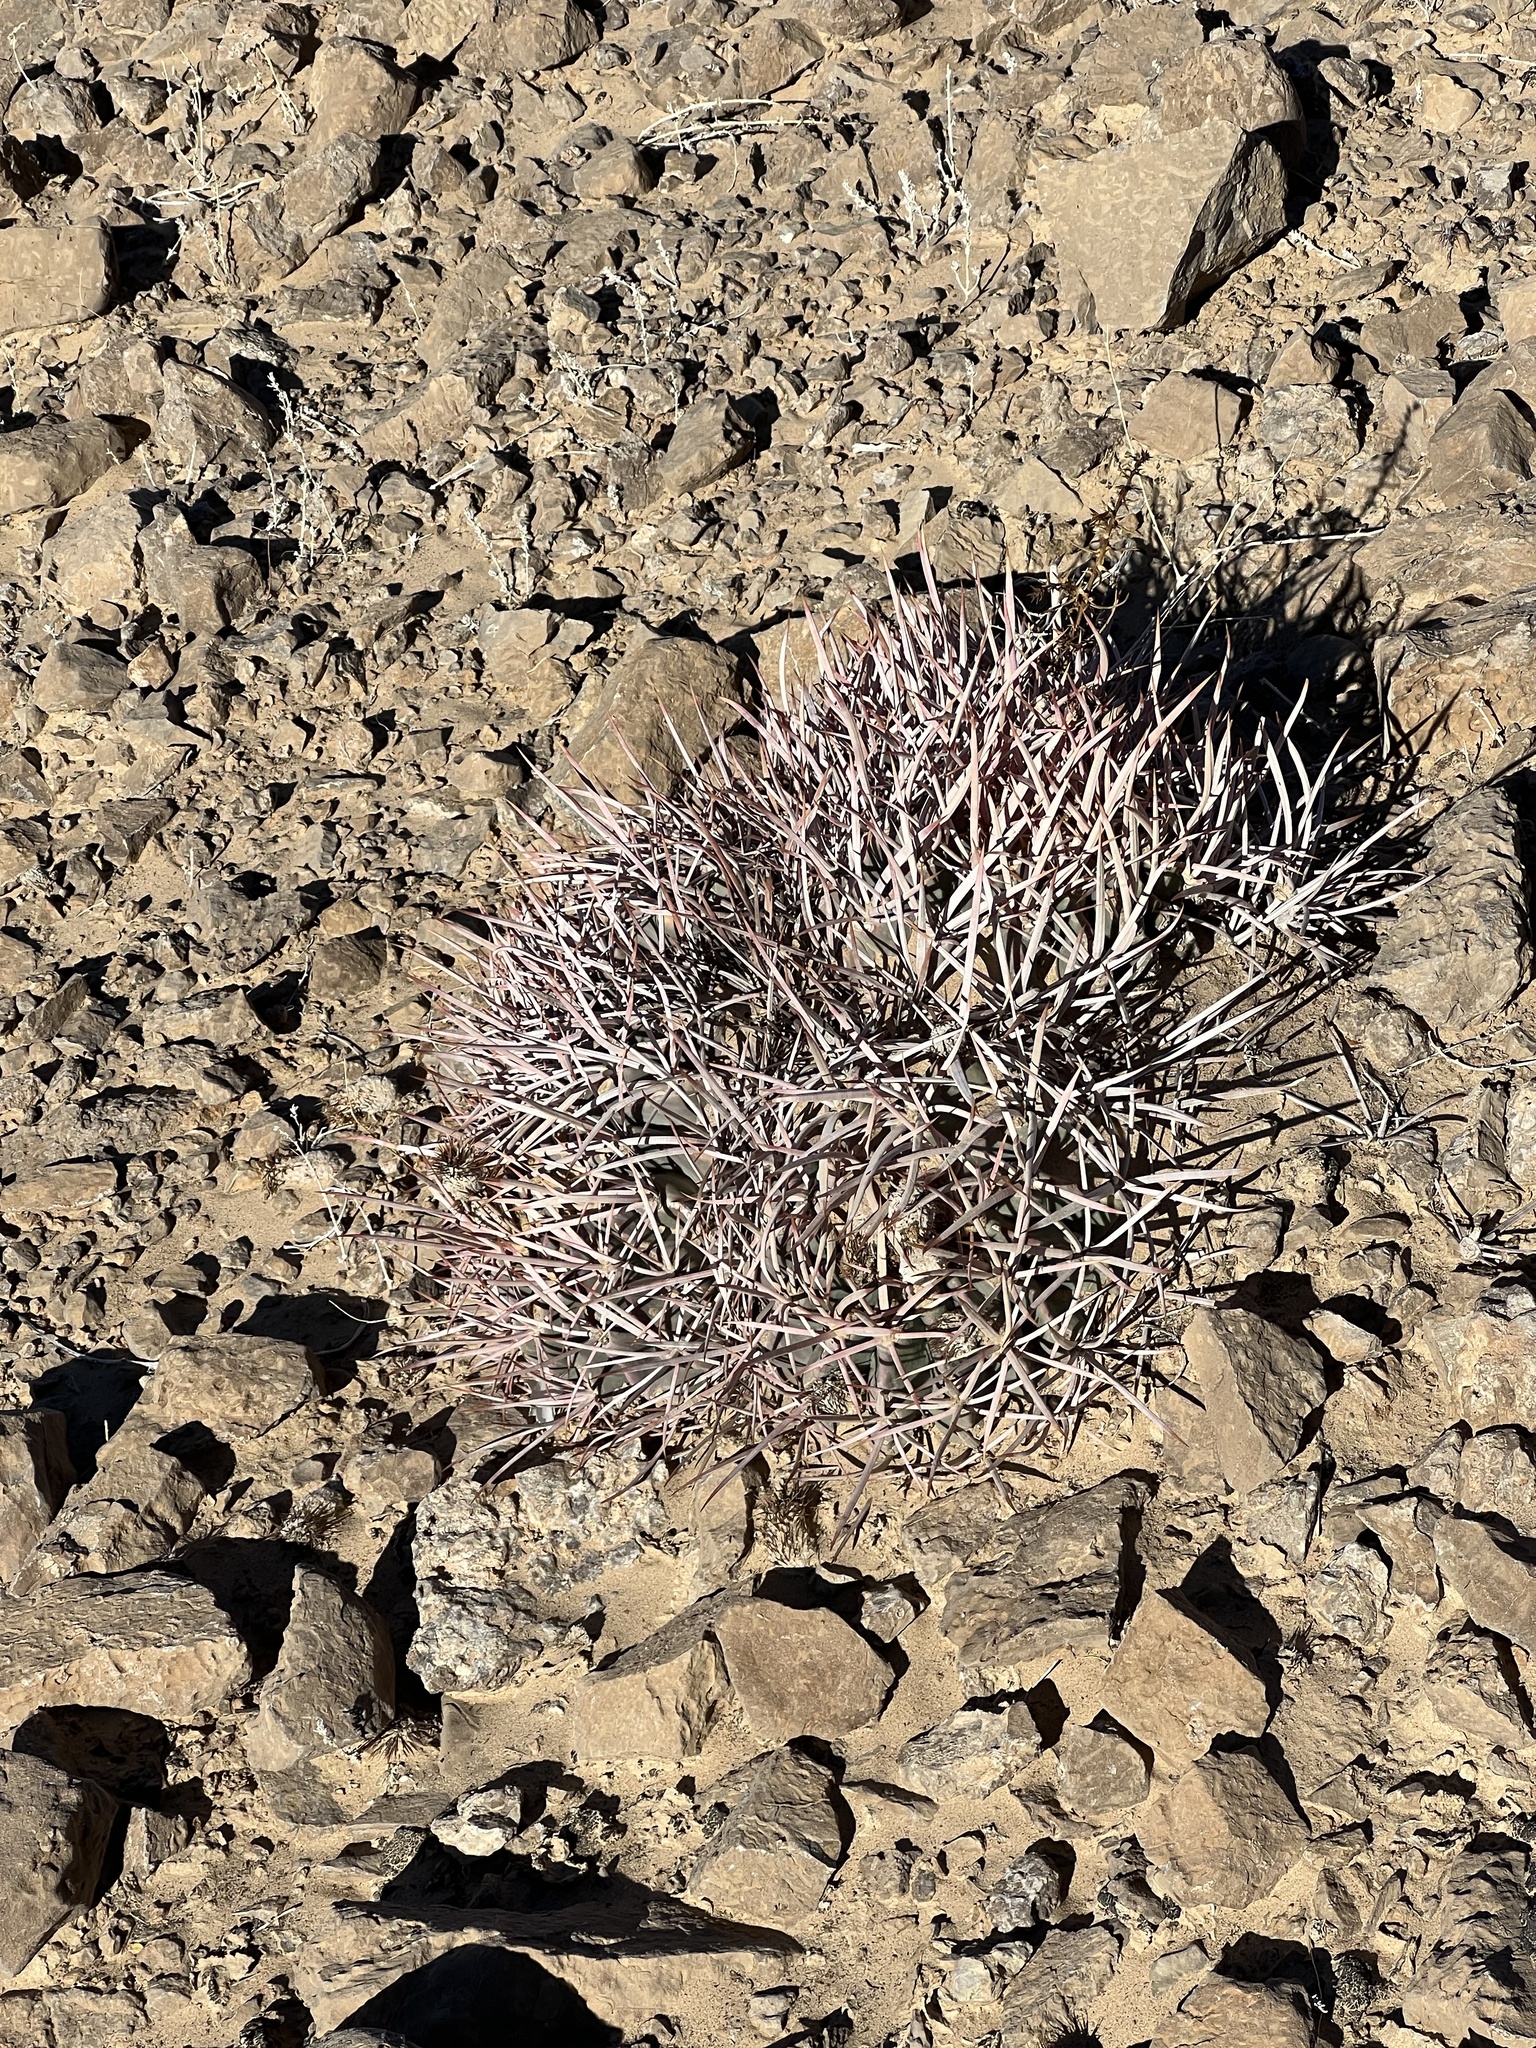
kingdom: Plantae
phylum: Tracheophyta
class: Magnoliopsida
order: Caryophyllales
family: Cactaceae
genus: Echinocactus
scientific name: Echinocactus polycephalus
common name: Cottontop cactus
